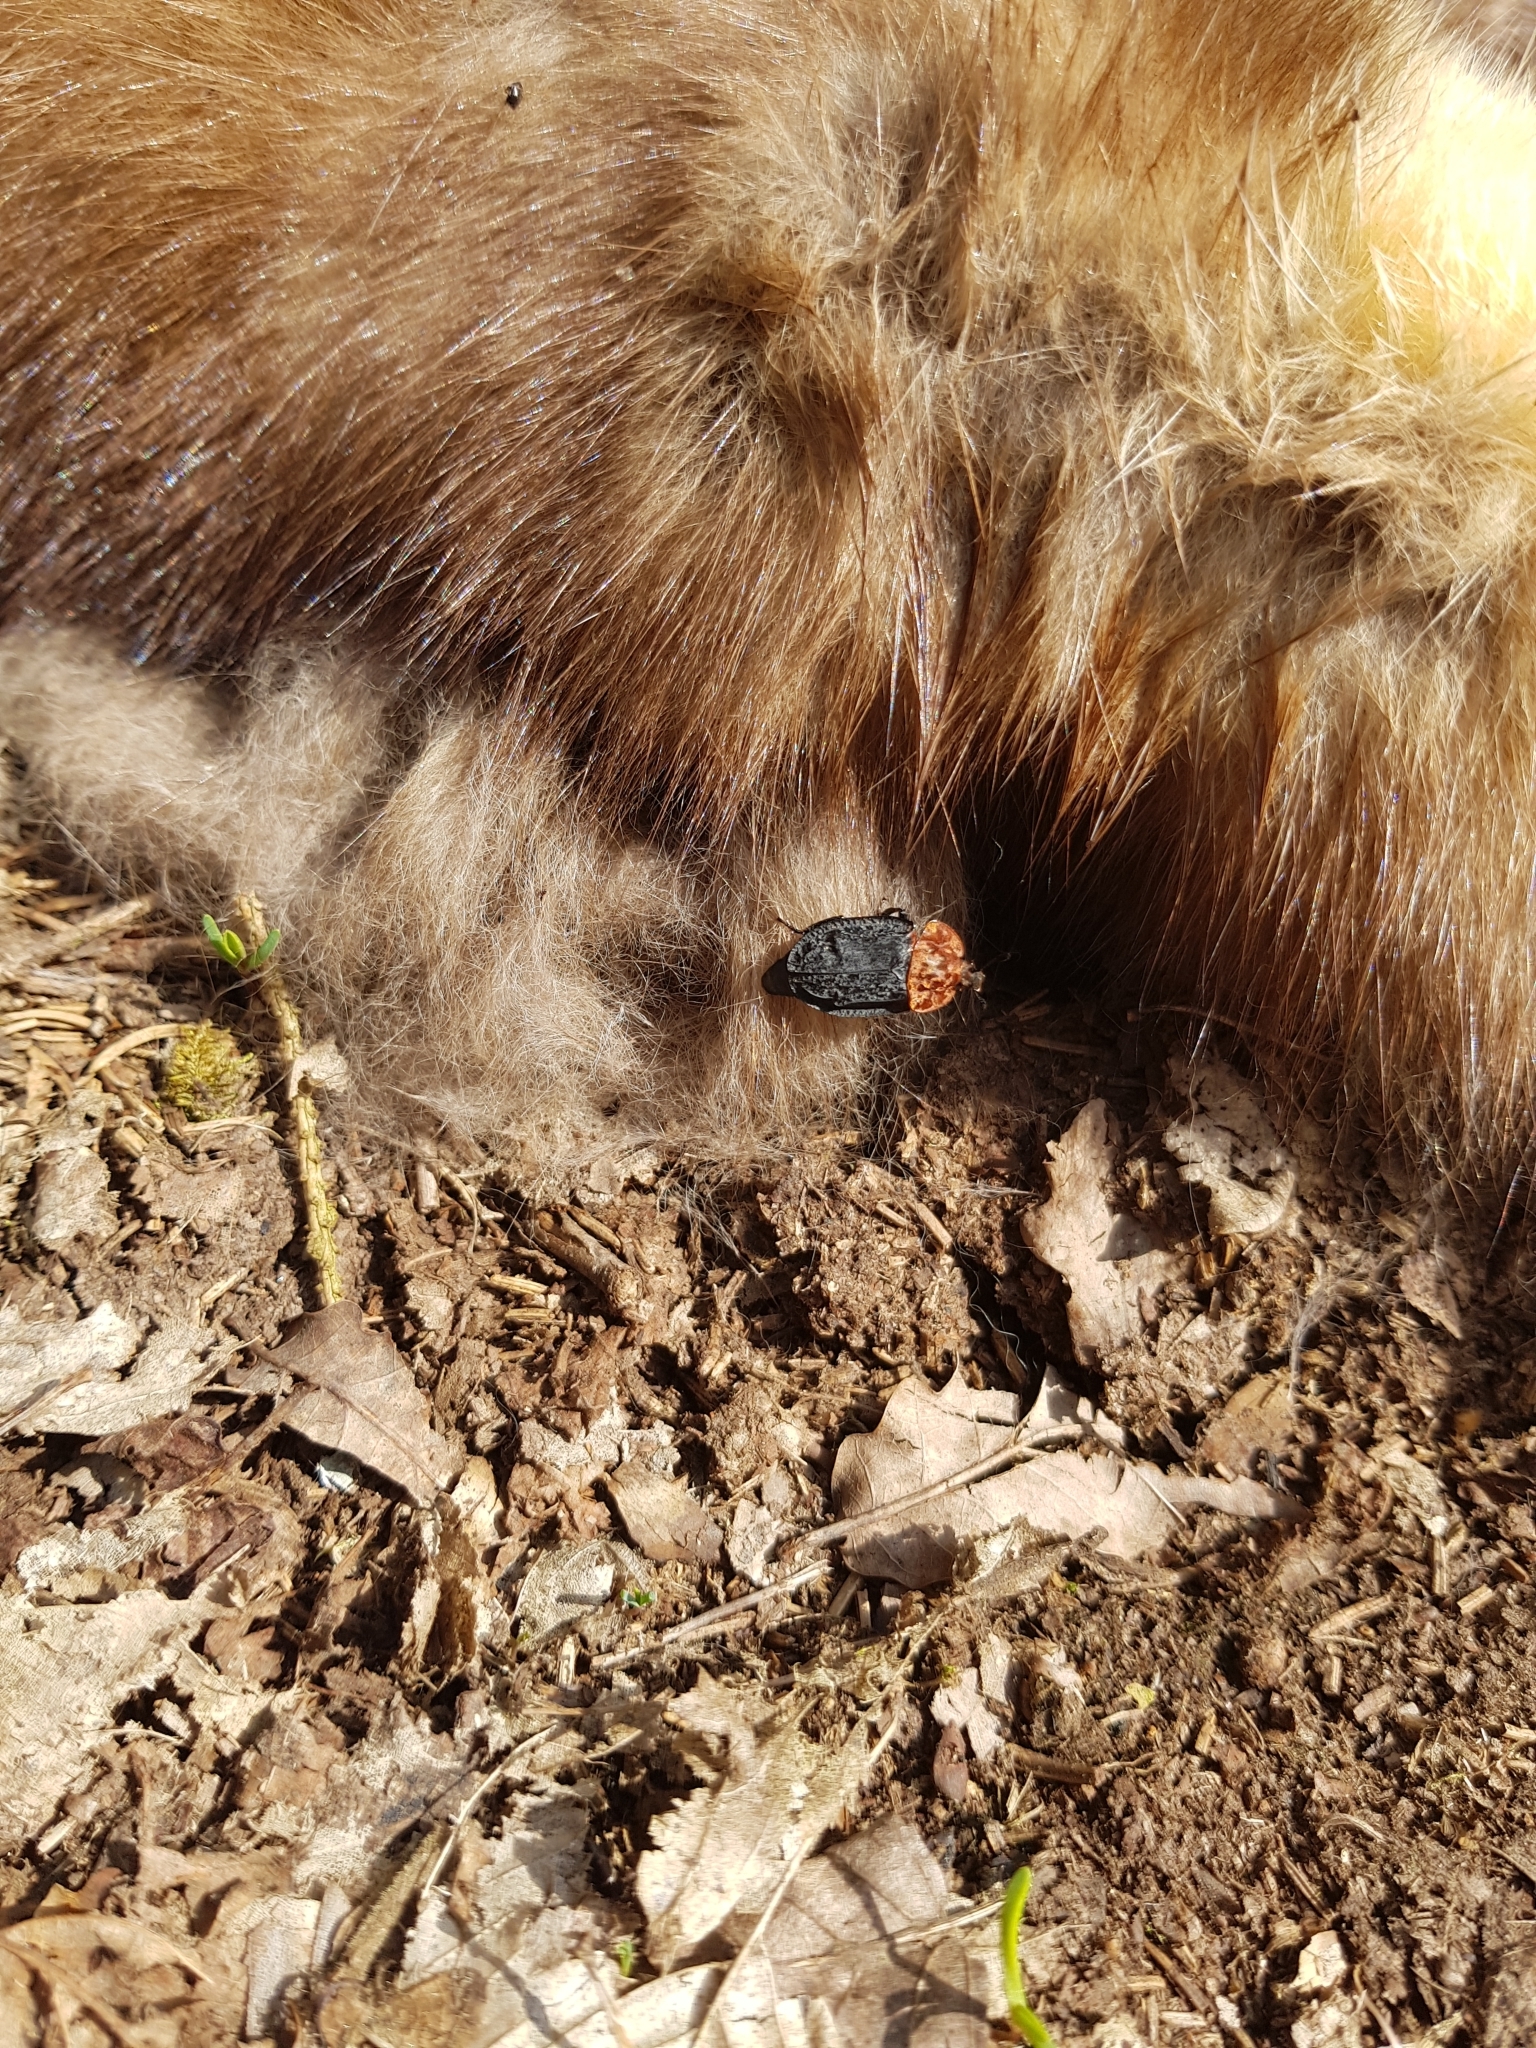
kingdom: Animalia
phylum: Arthropoda
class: Insecta
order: Coleoptera
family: Staphylinidae
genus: Oiceoptoma
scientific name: Oiceoptoma thoracicum
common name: Red-breasted carrion beetle
